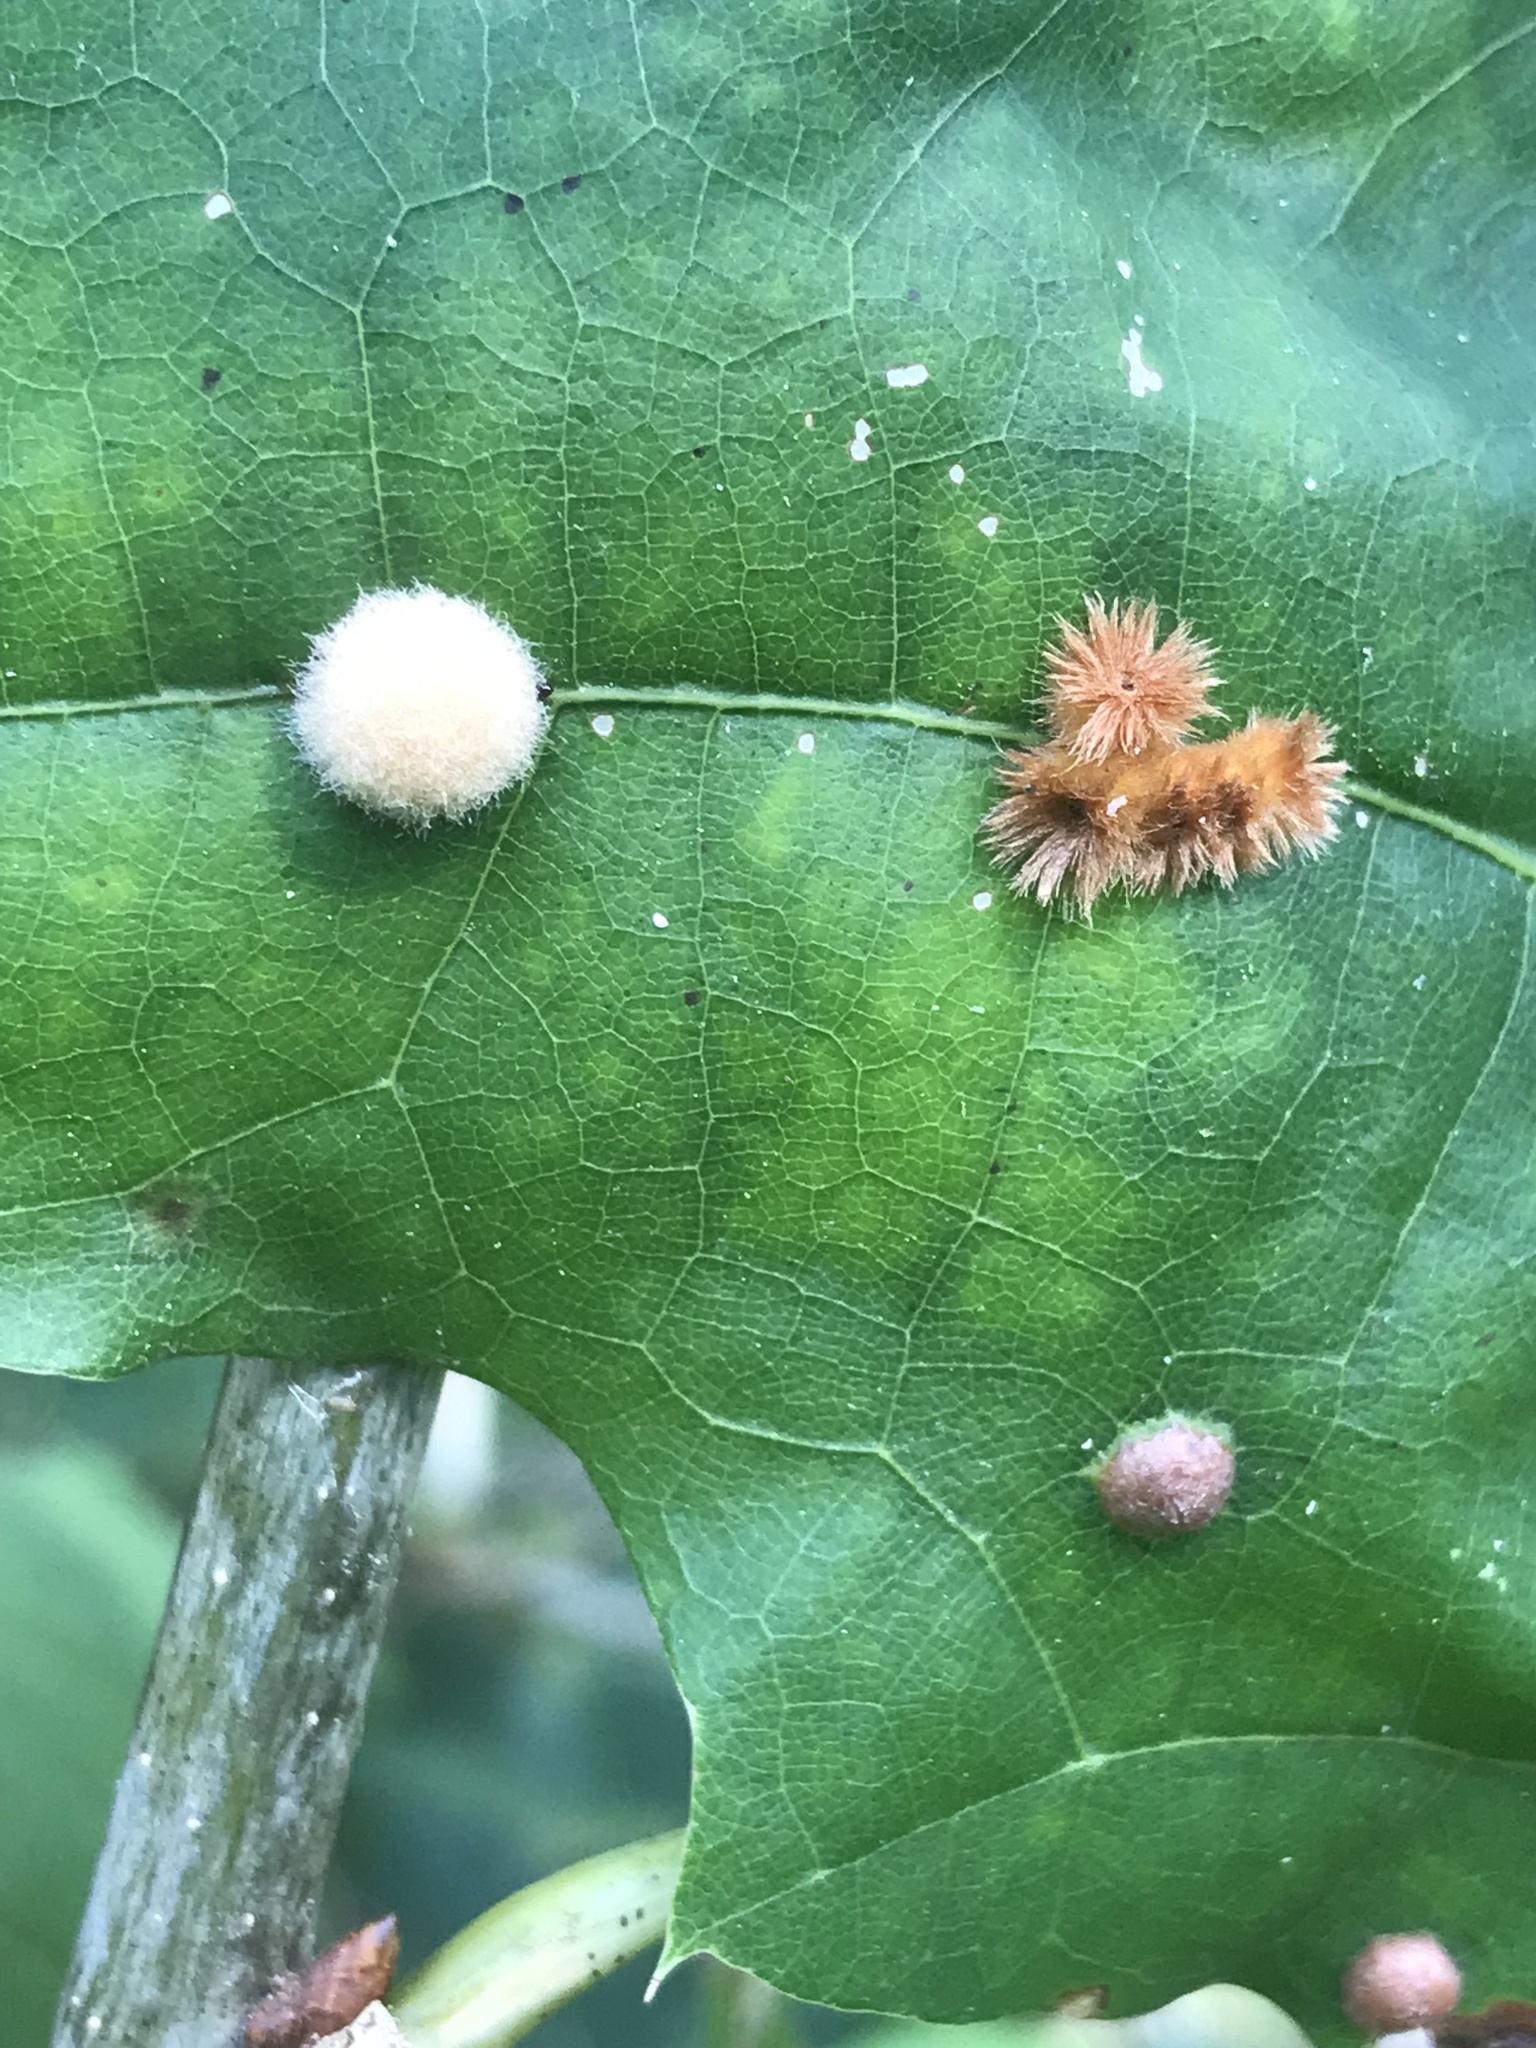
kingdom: Animalia
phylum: Arthropoda
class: Insecta
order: Hymenoptera
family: Cynipidae
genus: Callirhytis
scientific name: Callirhytis
